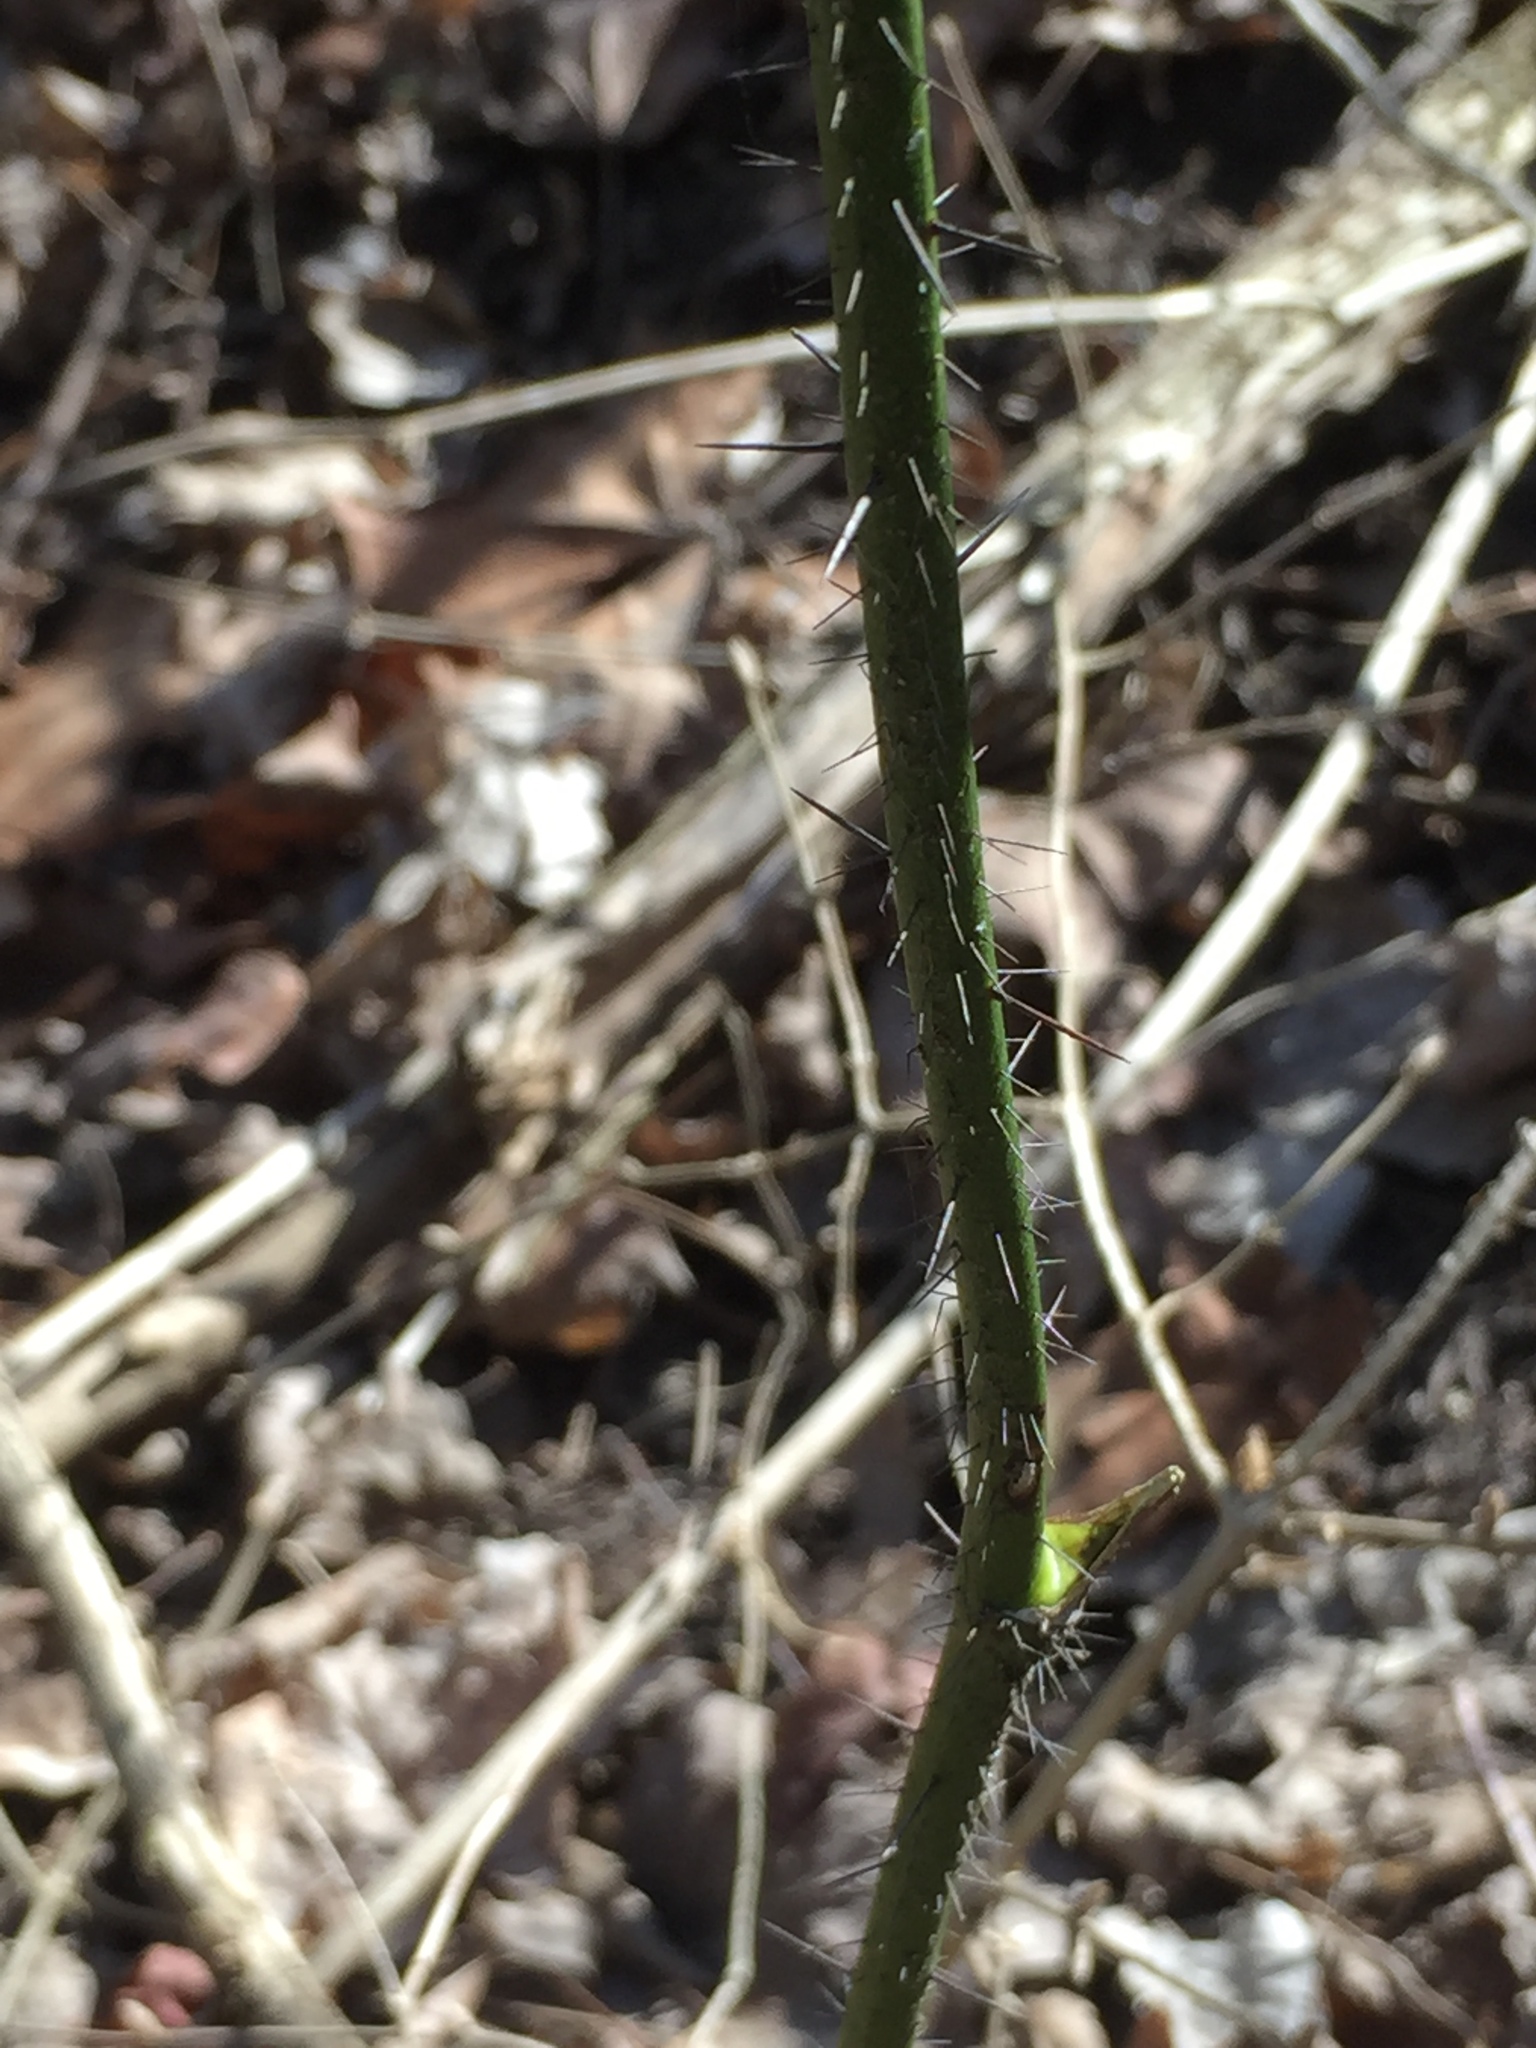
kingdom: Plantae
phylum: Tracheophyta
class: Liliopsida
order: Liliales
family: Smilacaceae
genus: Smilax
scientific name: Smilax tamnoides
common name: Hellfetter
